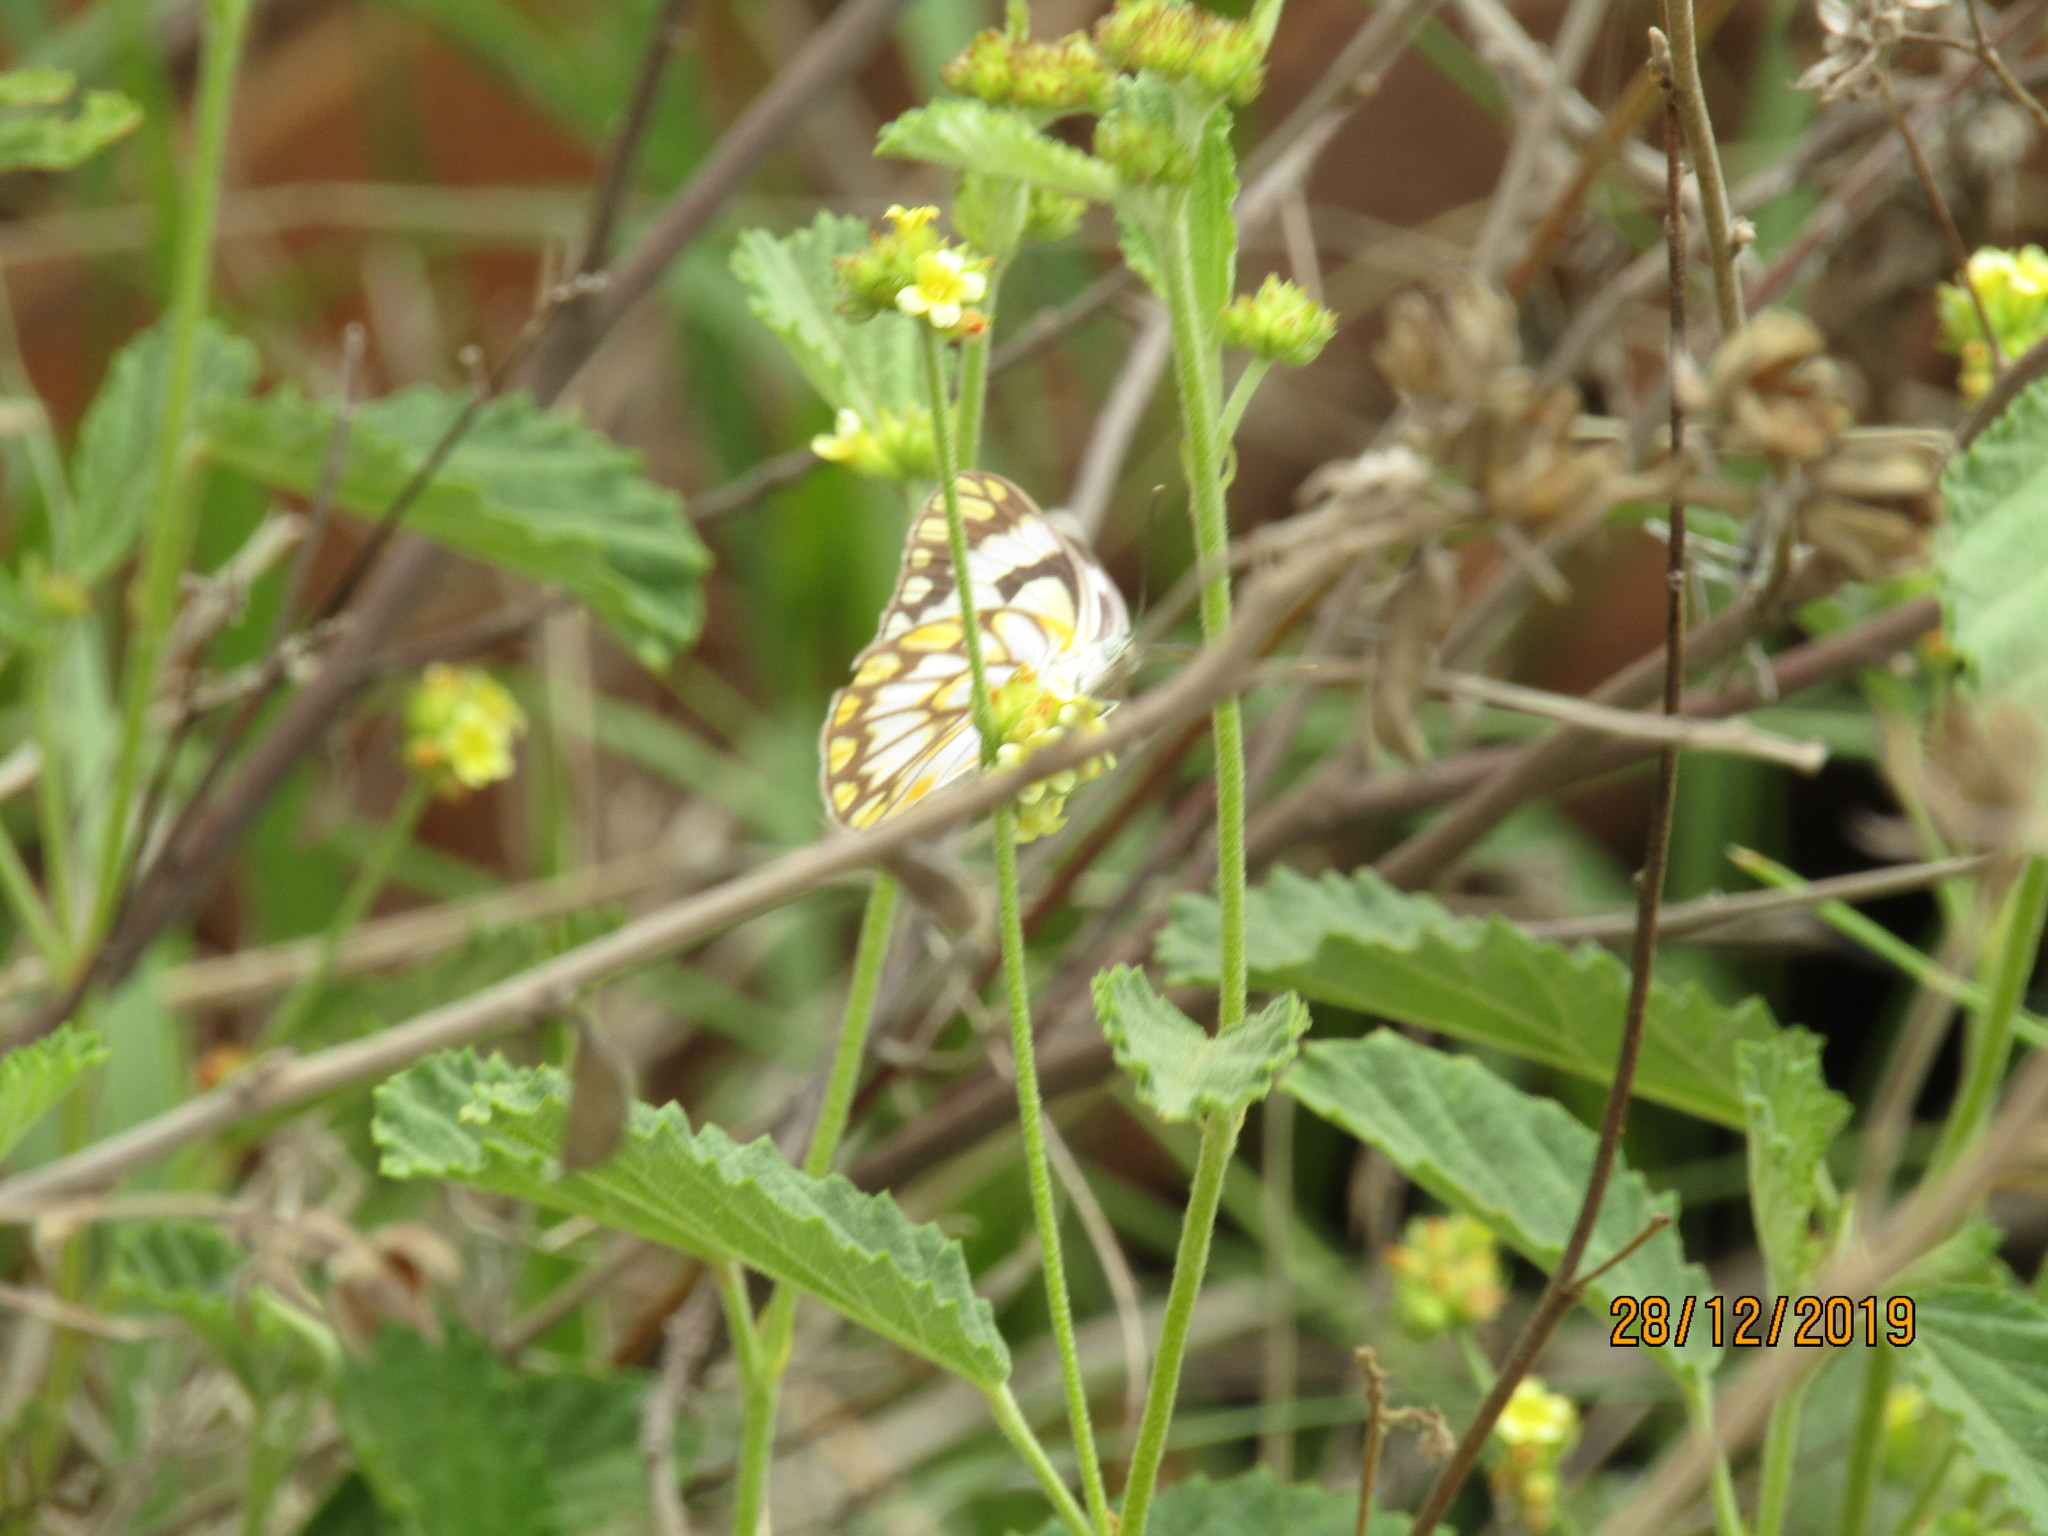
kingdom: Animalia
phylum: Arthropoda
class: Insecta
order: Lepidoptera
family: Pieridae
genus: Belenois
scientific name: Belenois aurota
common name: Brown-veined white
